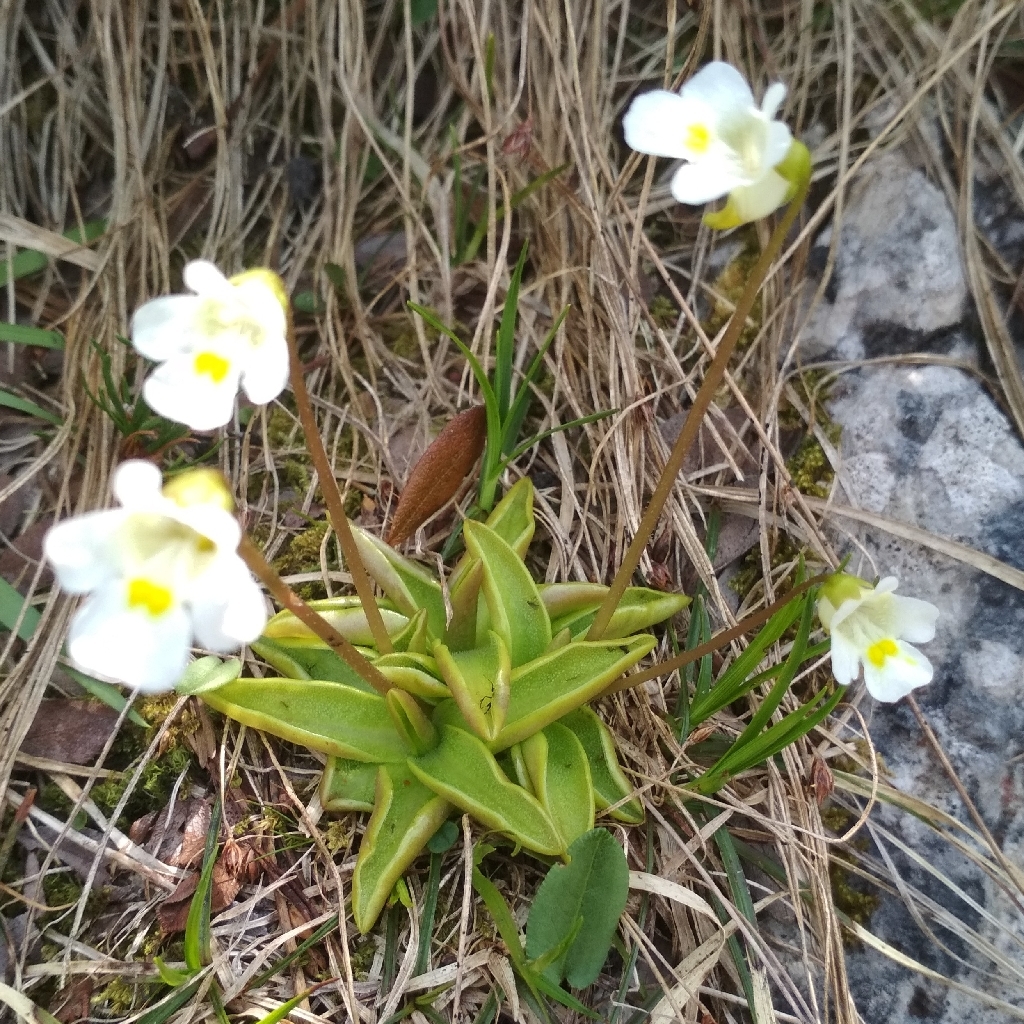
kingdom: Plantae
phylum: Tracheophyta
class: Magnoliopsida
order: Lamiales
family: Lentibulariaceae
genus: Pinguicula
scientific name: Pinguicula alpina
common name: Alpine butterwort
